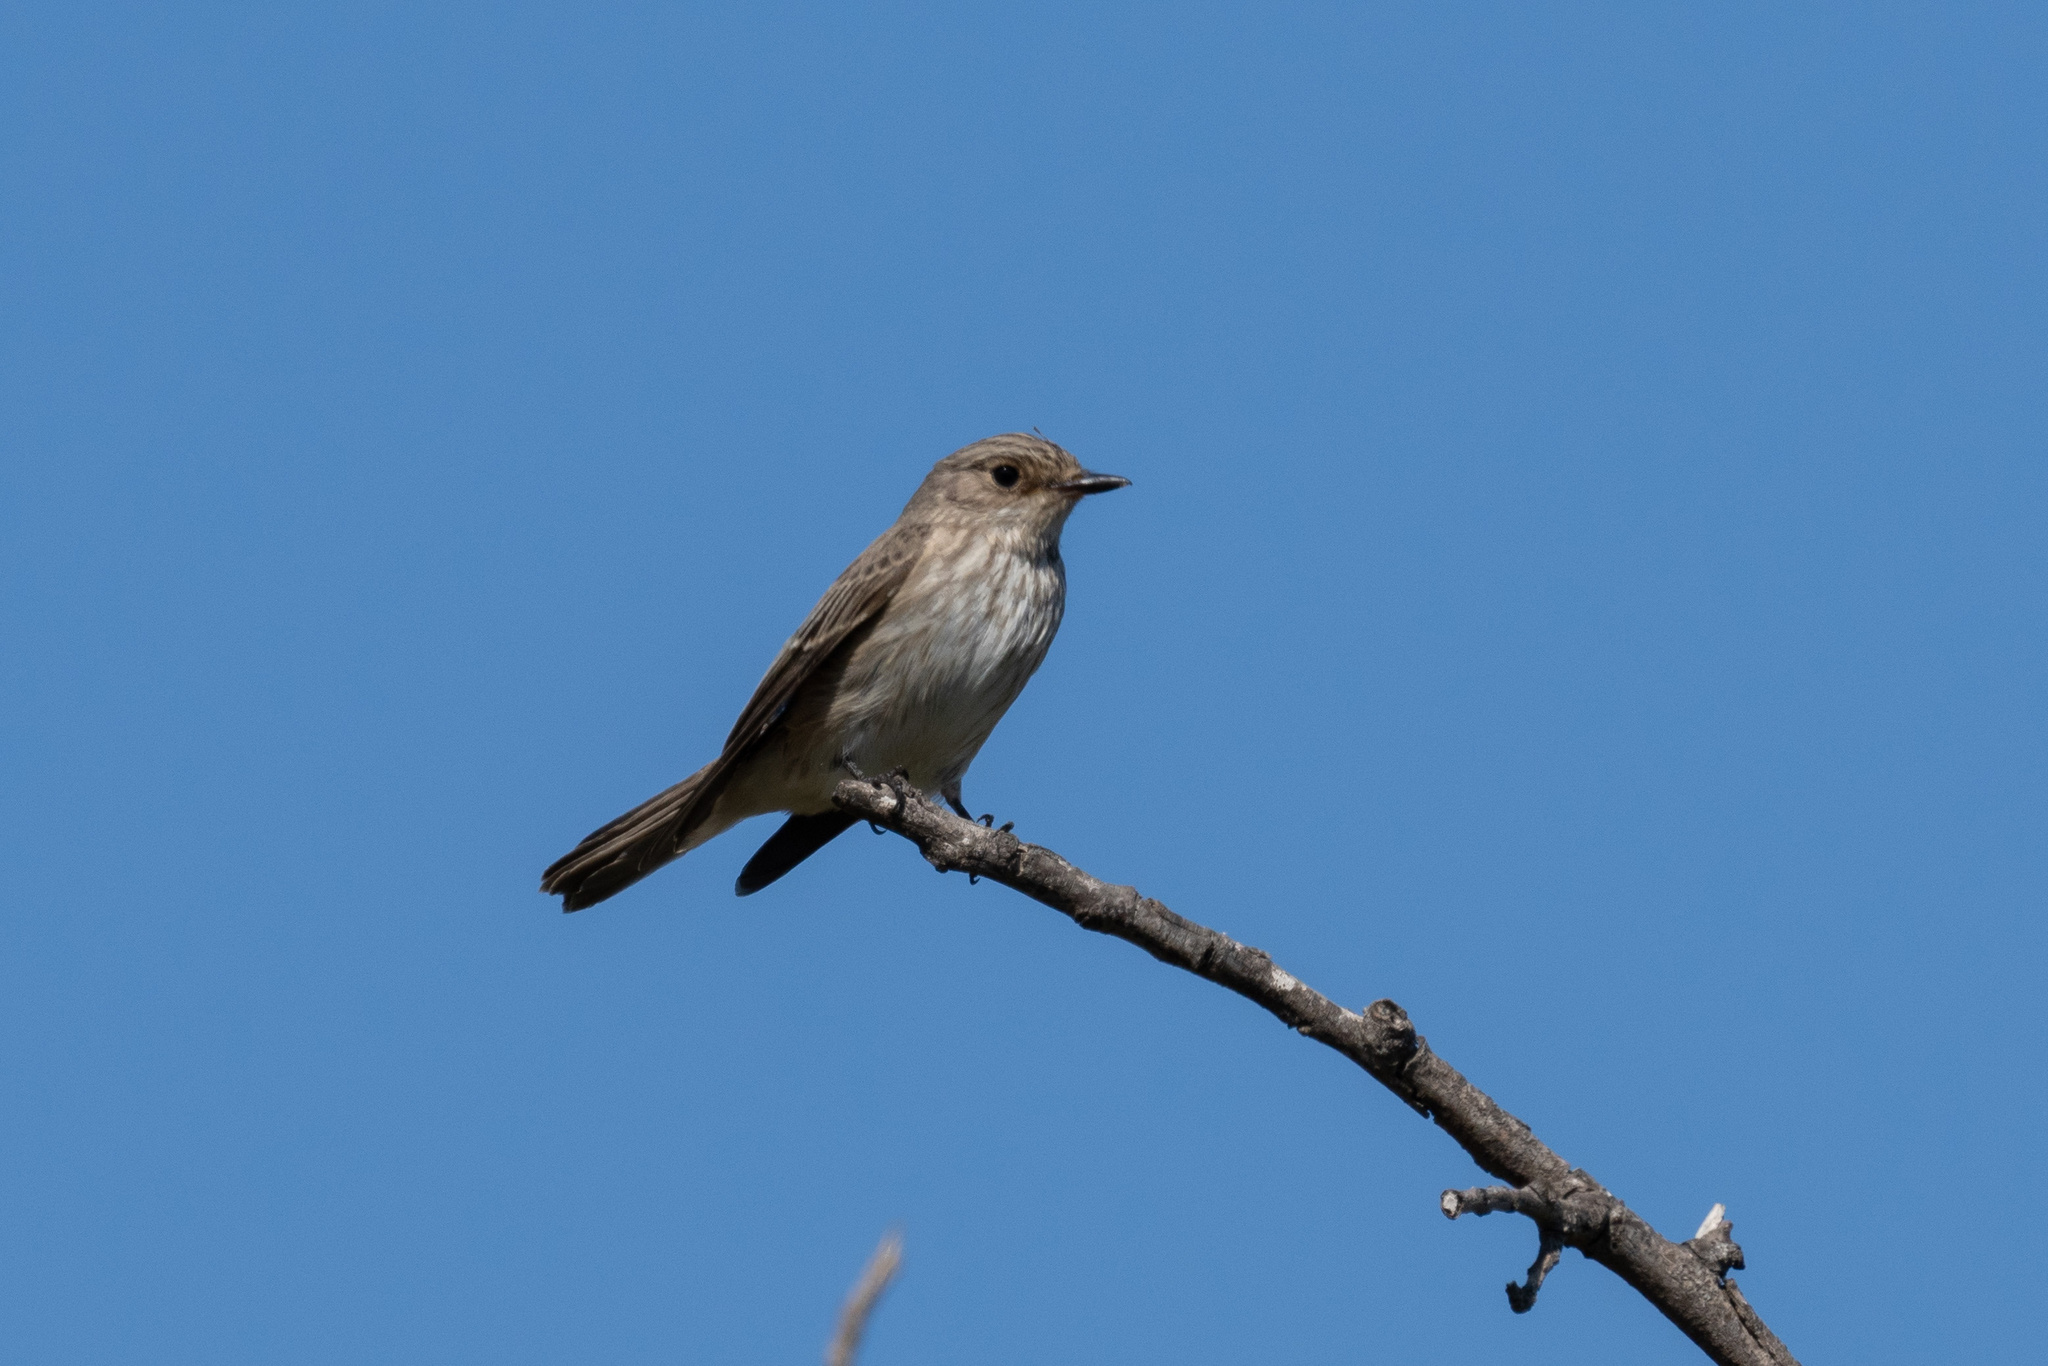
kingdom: Animalia
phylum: Chordata
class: Aves
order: Passeriformes
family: Muscicapidae
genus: Muscicapa
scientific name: Muscicapa striata
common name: Spotted flycatcher
